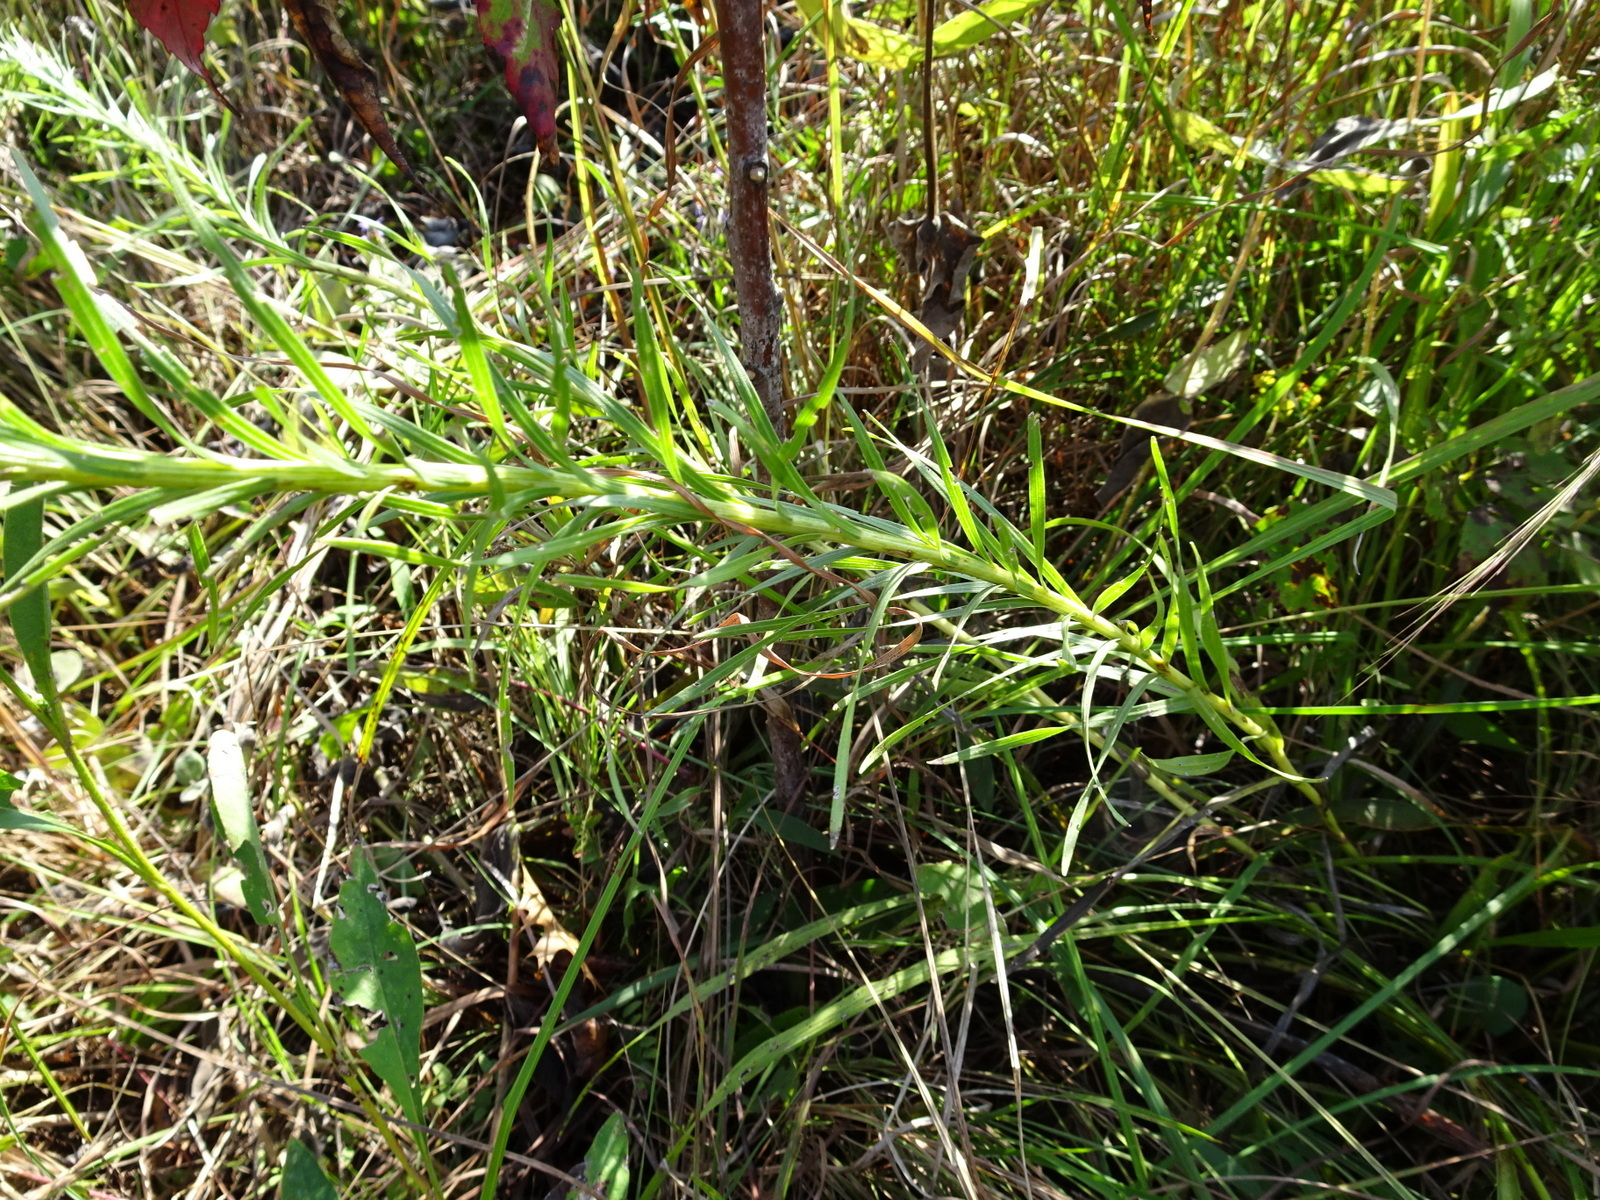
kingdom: Plantae
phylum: Tracheophyta
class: Magnoliopsida
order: Asterales
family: Asteraceae
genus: Liatris
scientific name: Liatris pycnostachya
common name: Cattail gayfeather
